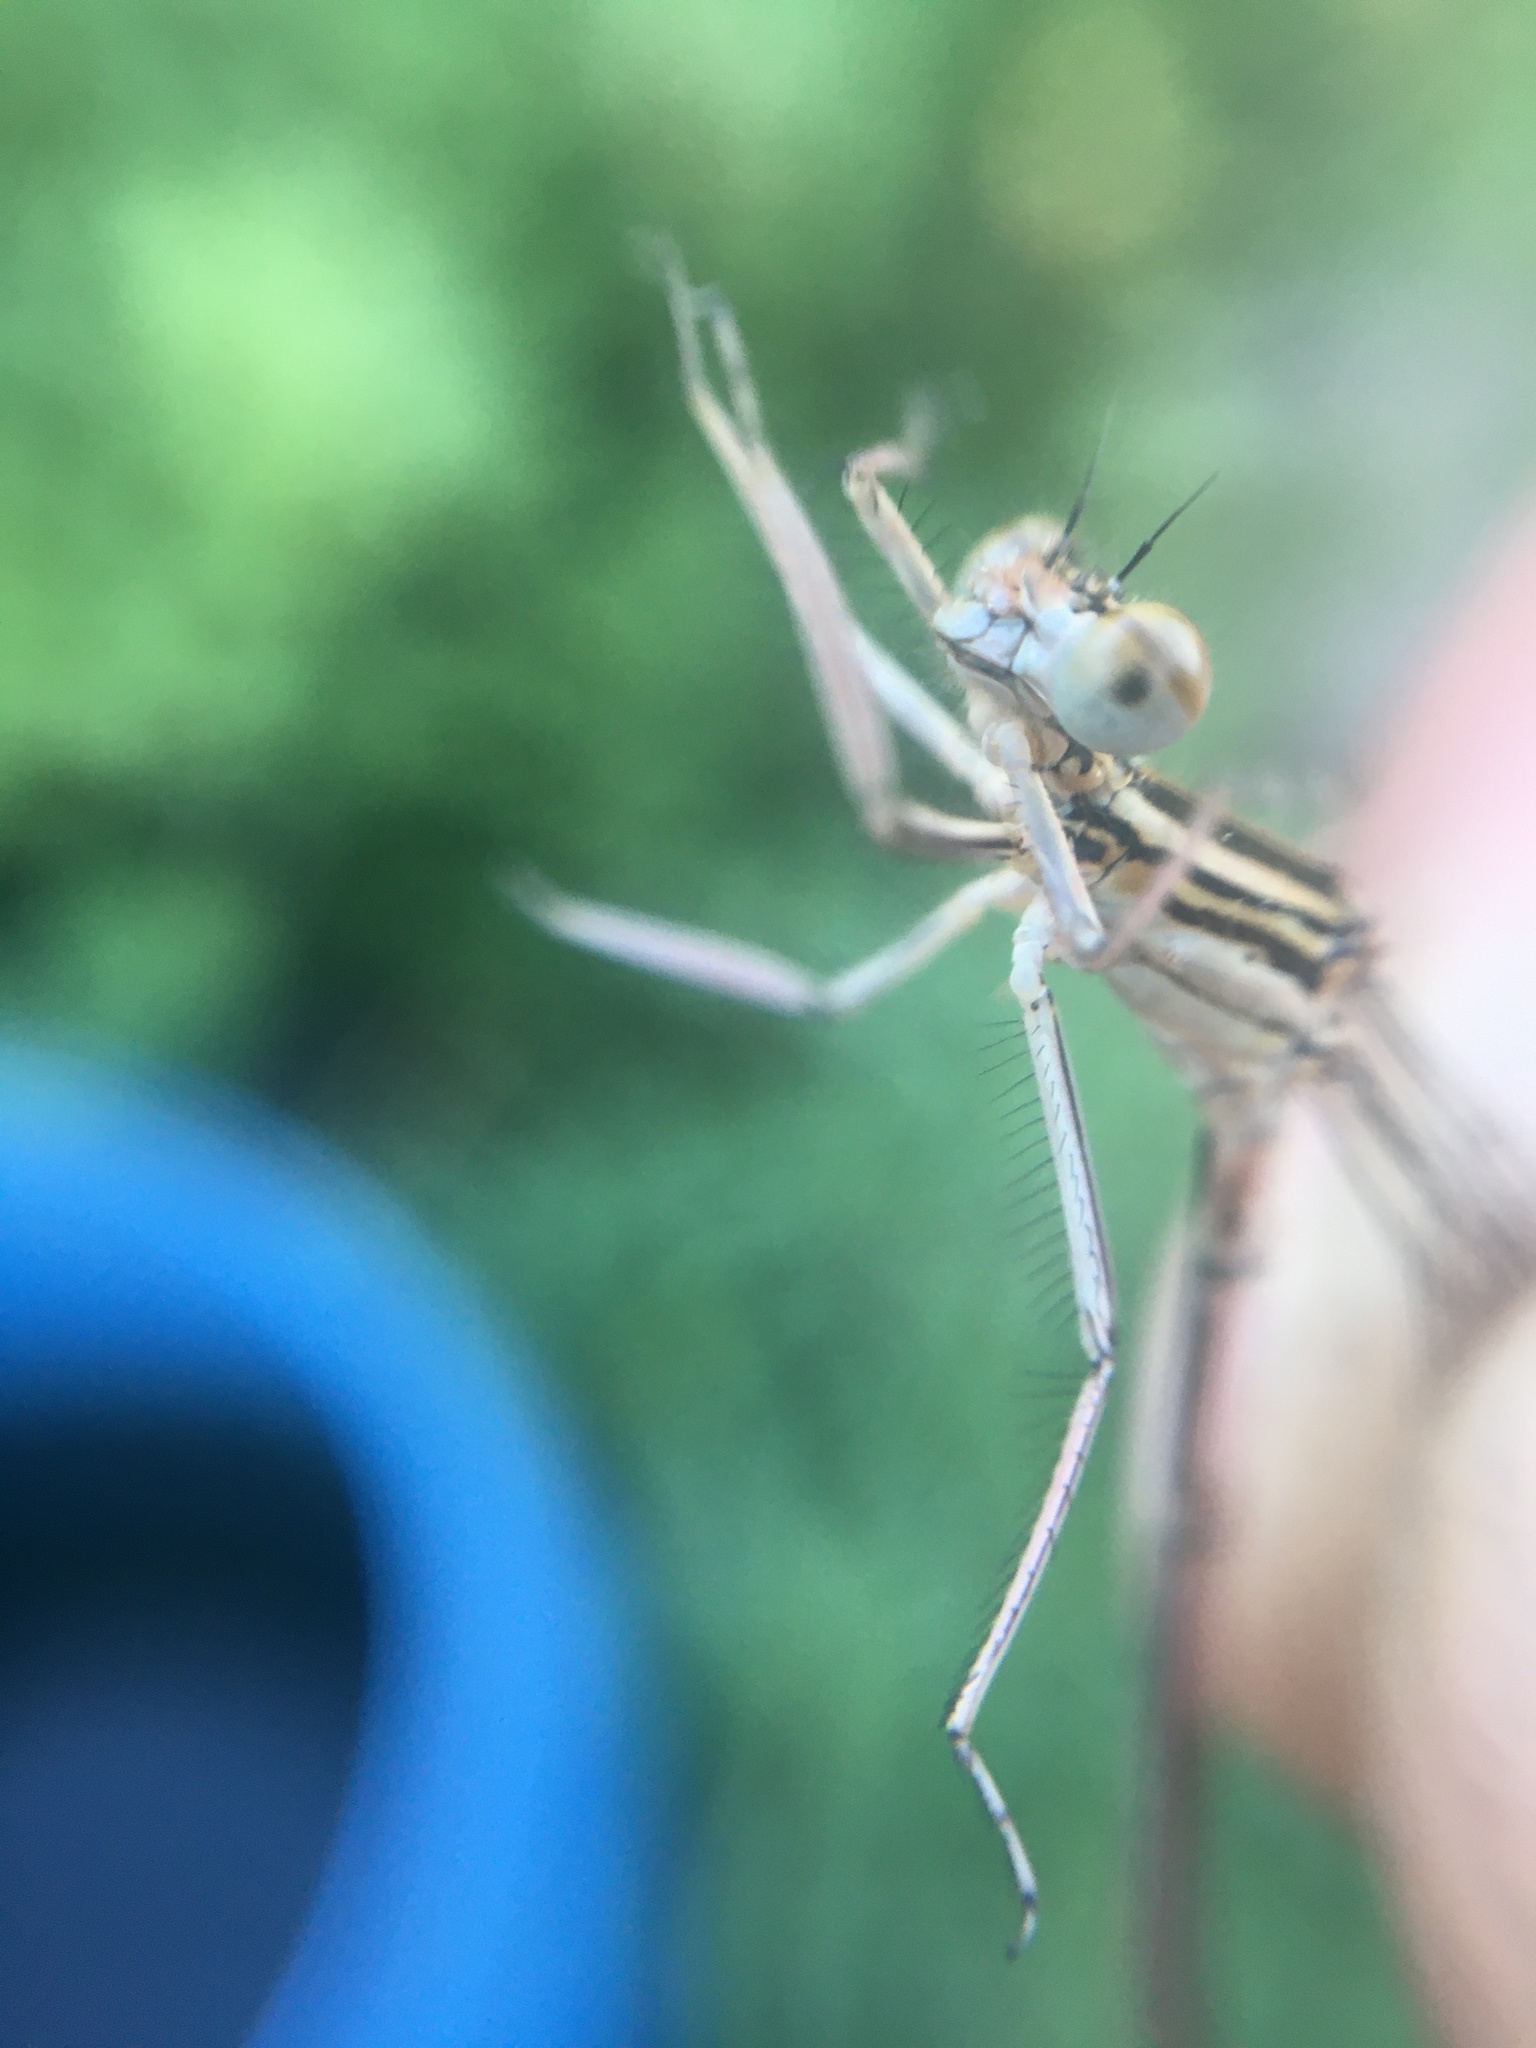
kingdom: Animalia
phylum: Arthropoda
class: Insecta
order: Odonata
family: Platycnemididae
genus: Platycnemis
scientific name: Platycnemis pennipes
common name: White-legged damselfly
